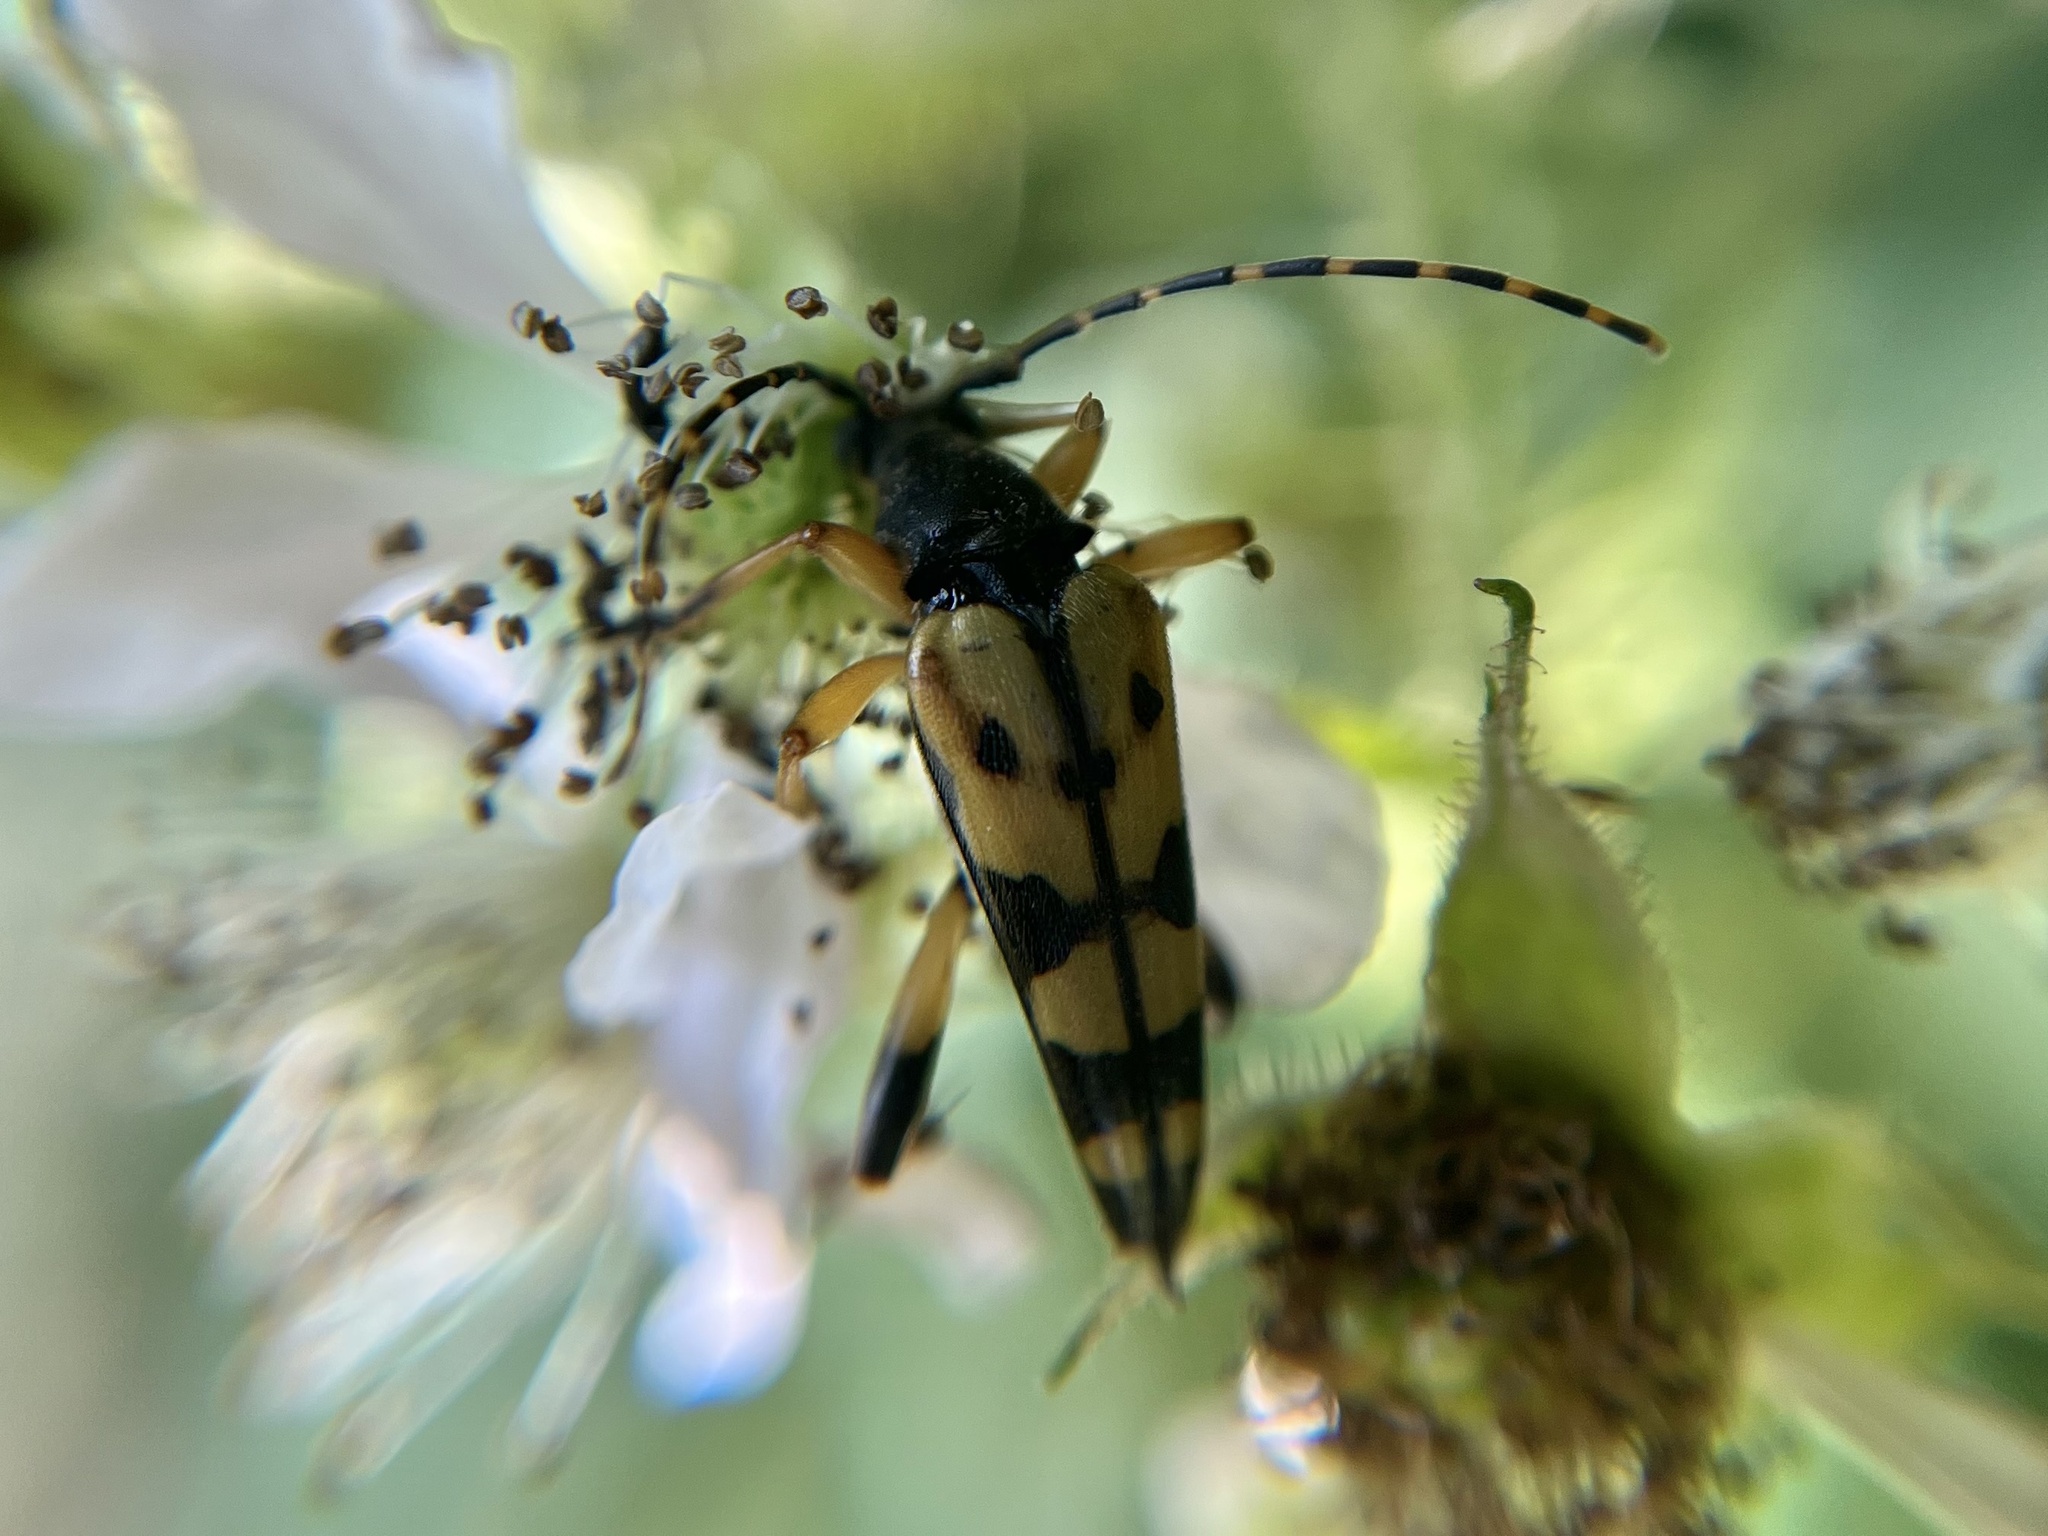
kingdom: Animalia
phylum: Arthropoda
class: Insecta
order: Coleoptera
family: Cerambycidae
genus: Rutpela
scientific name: Rutpela maculata
